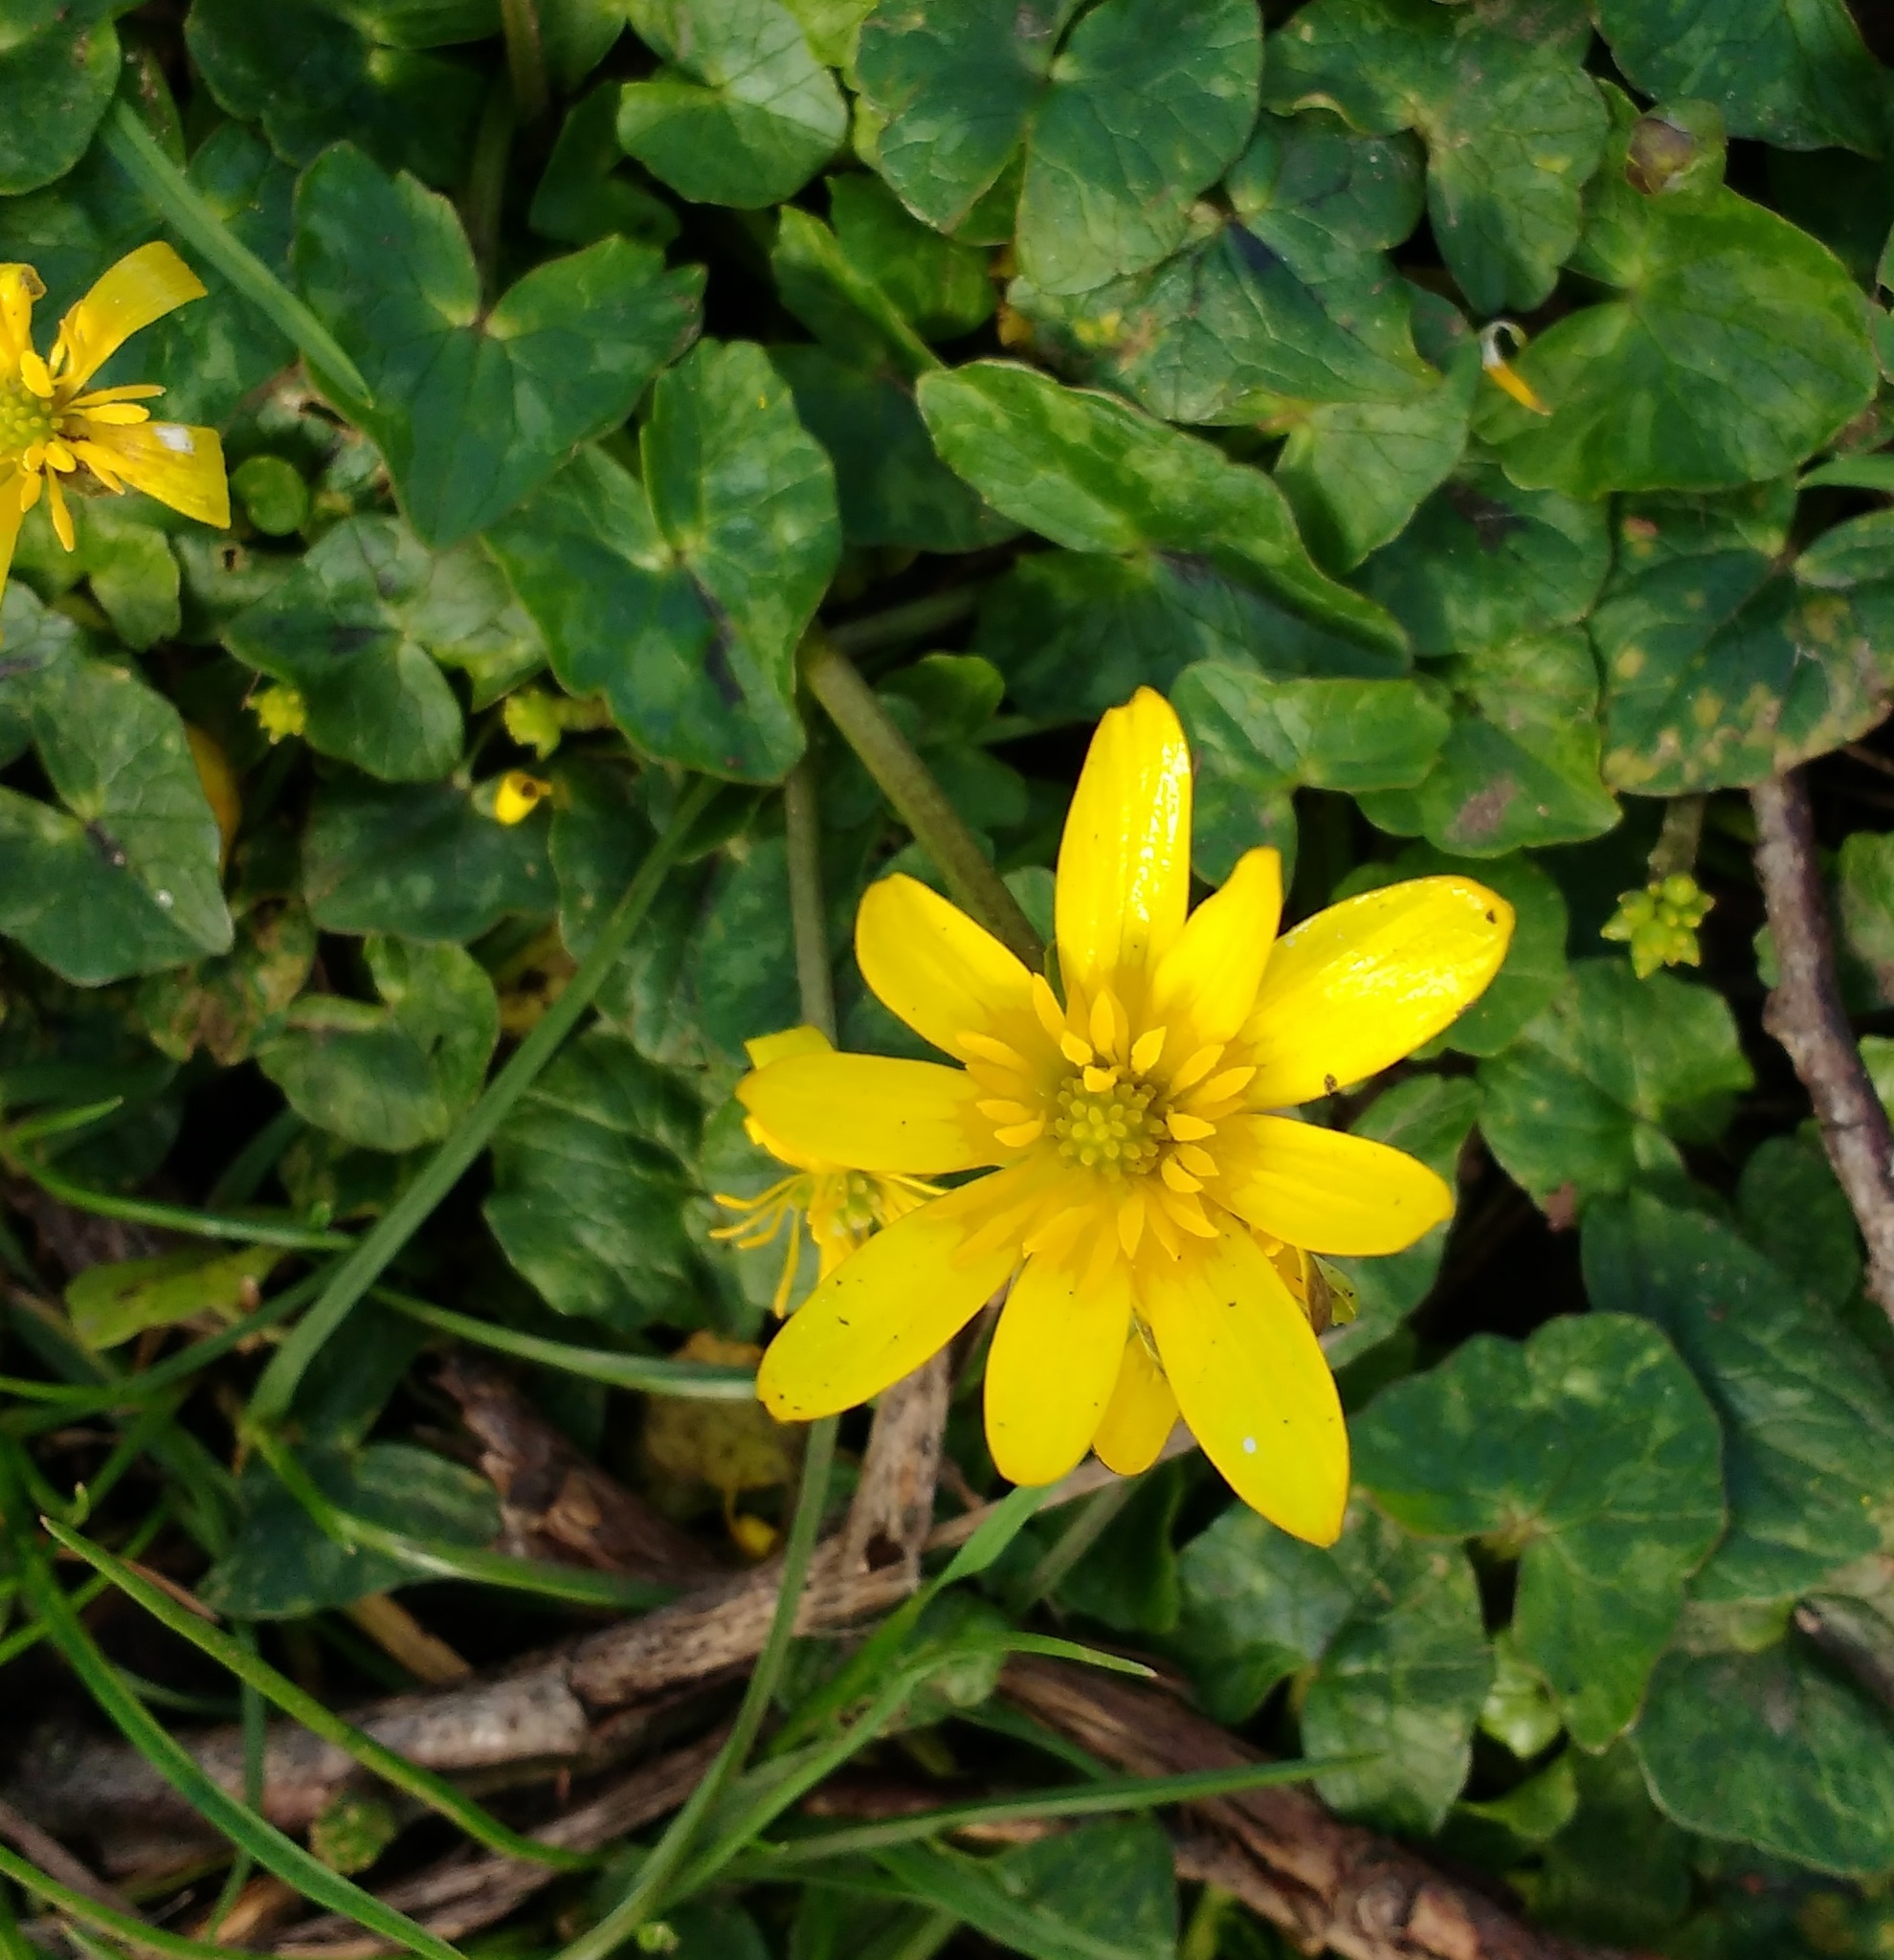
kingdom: Plantae
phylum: Tracheophyta
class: Magnoliopsida
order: Ranunculales
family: Ranunculaceae
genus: Ficaria
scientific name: Ficaria verna
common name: Lesser celandine
